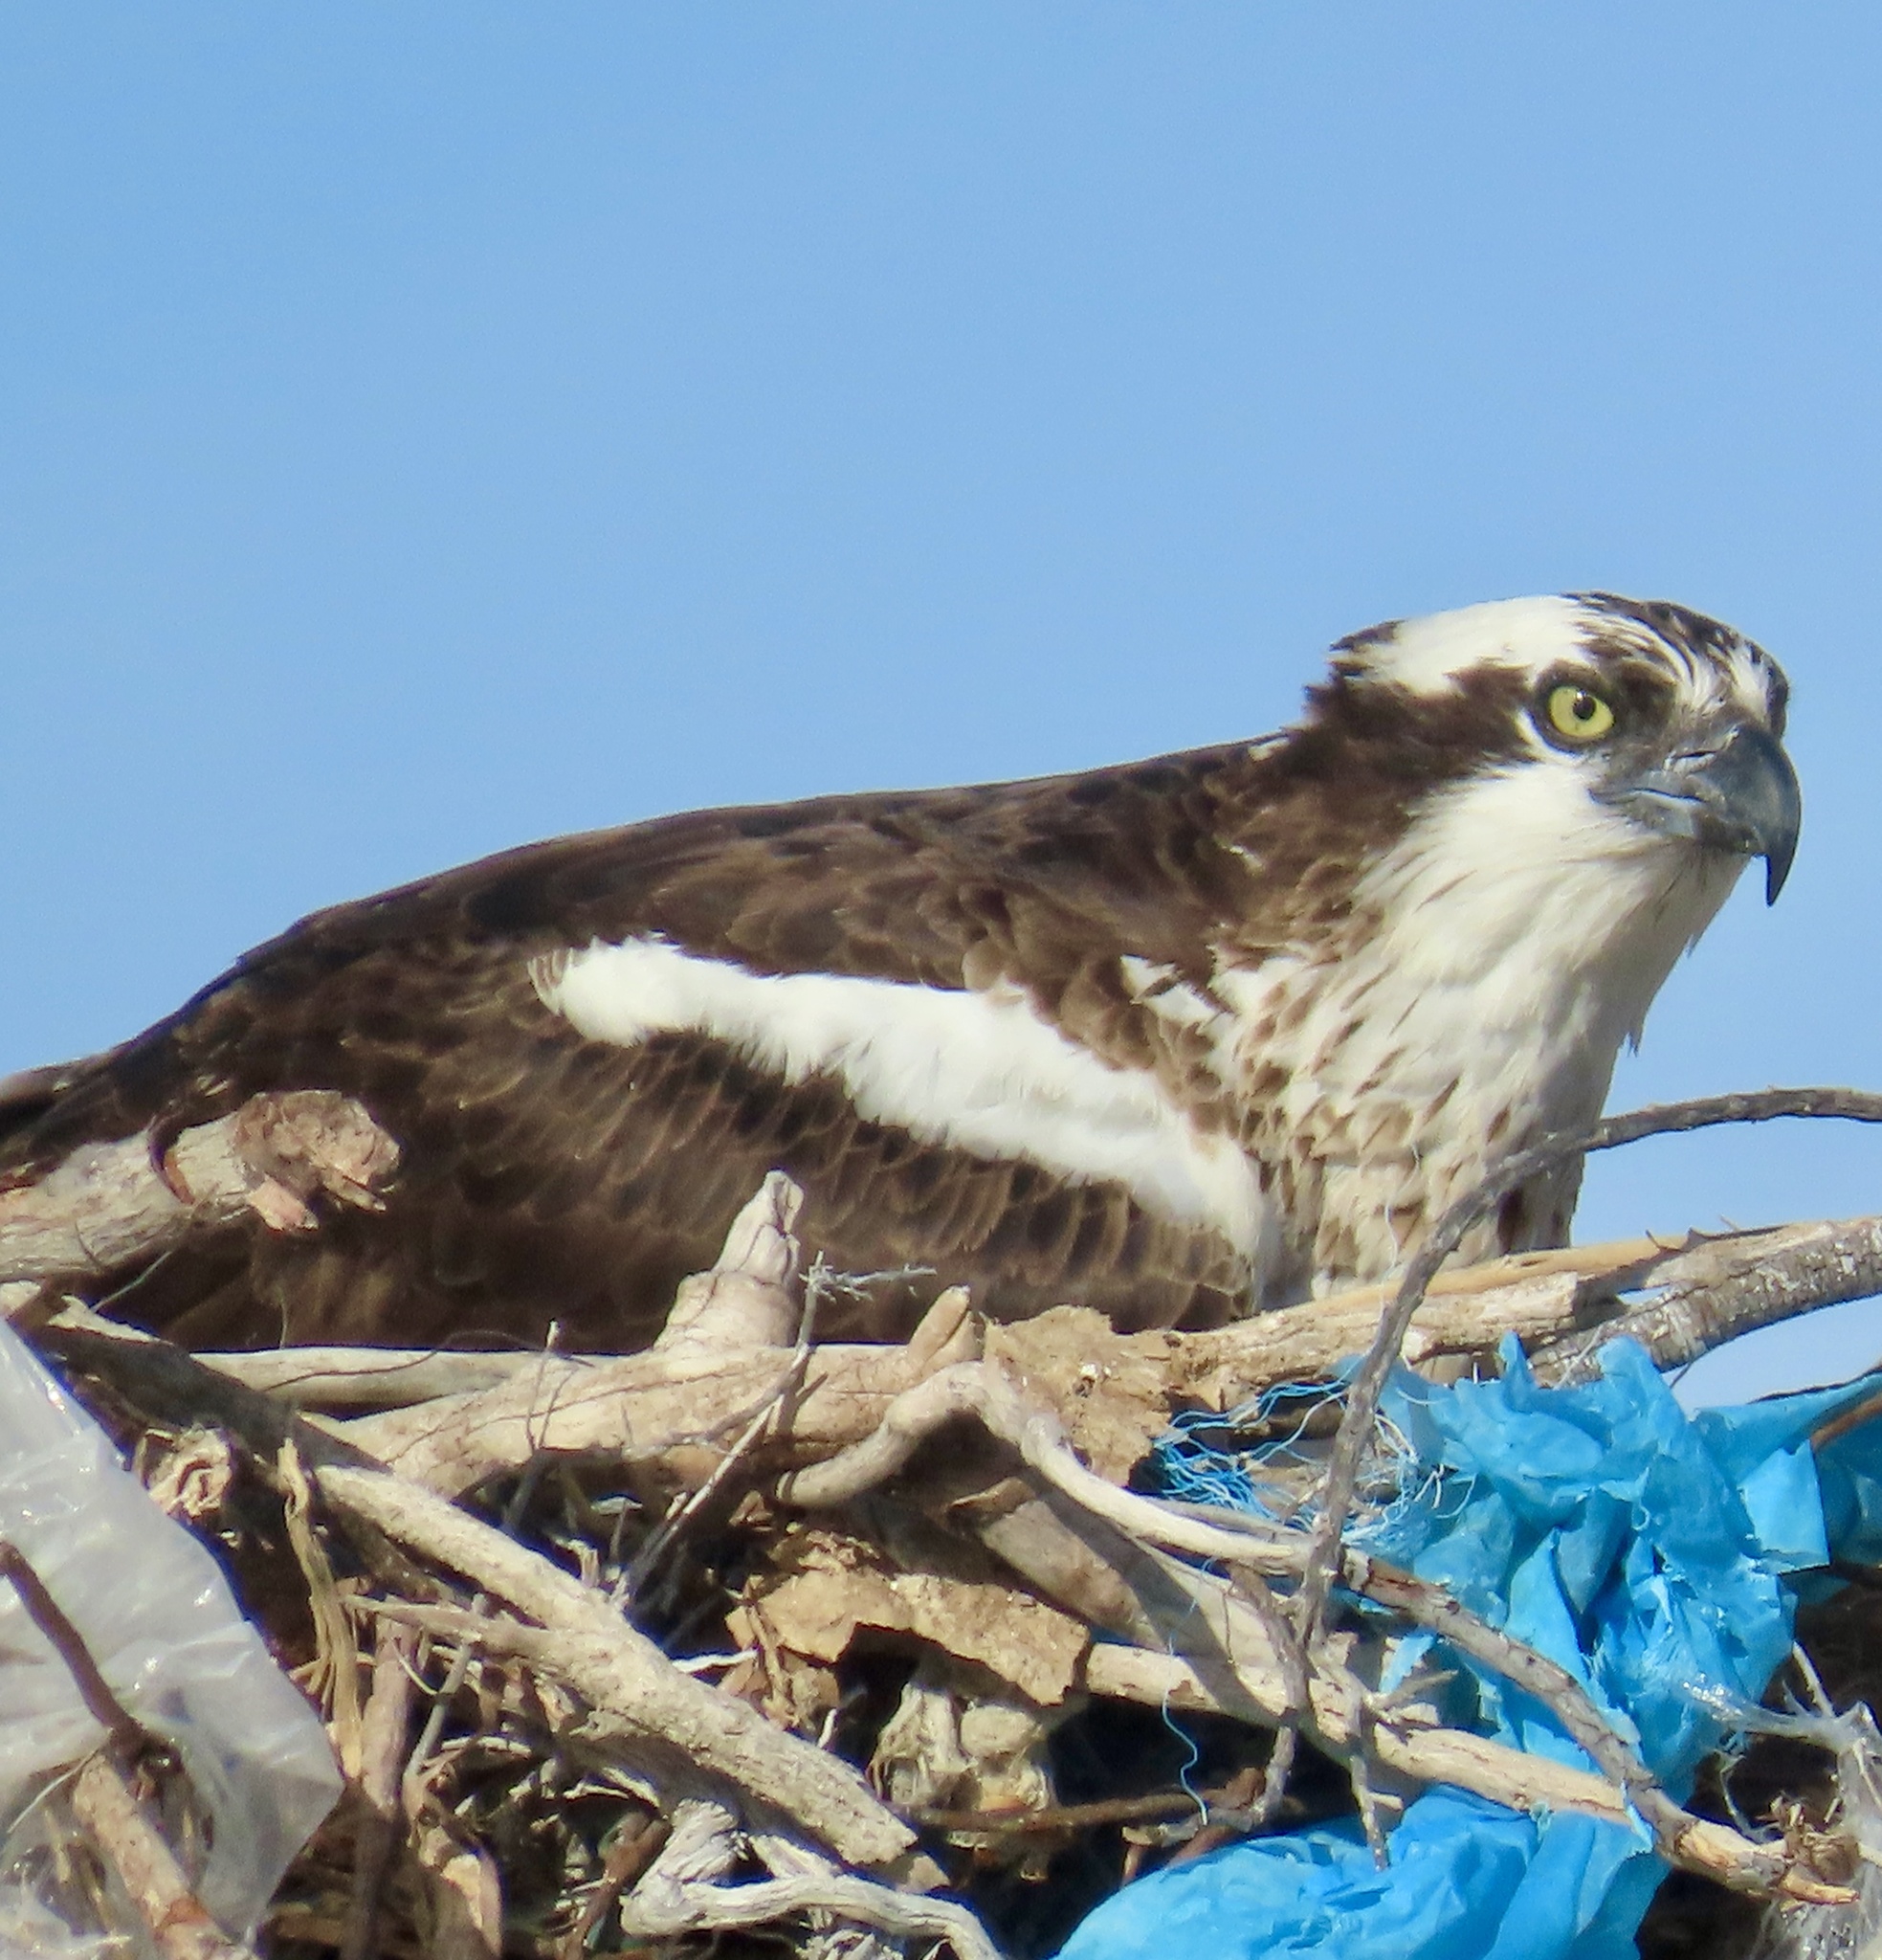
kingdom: Animalia
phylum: Chordata
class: Aves
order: Accipitriformes
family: Pandionidae
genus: Pandion
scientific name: Pandion haliaetus
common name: Osprey
